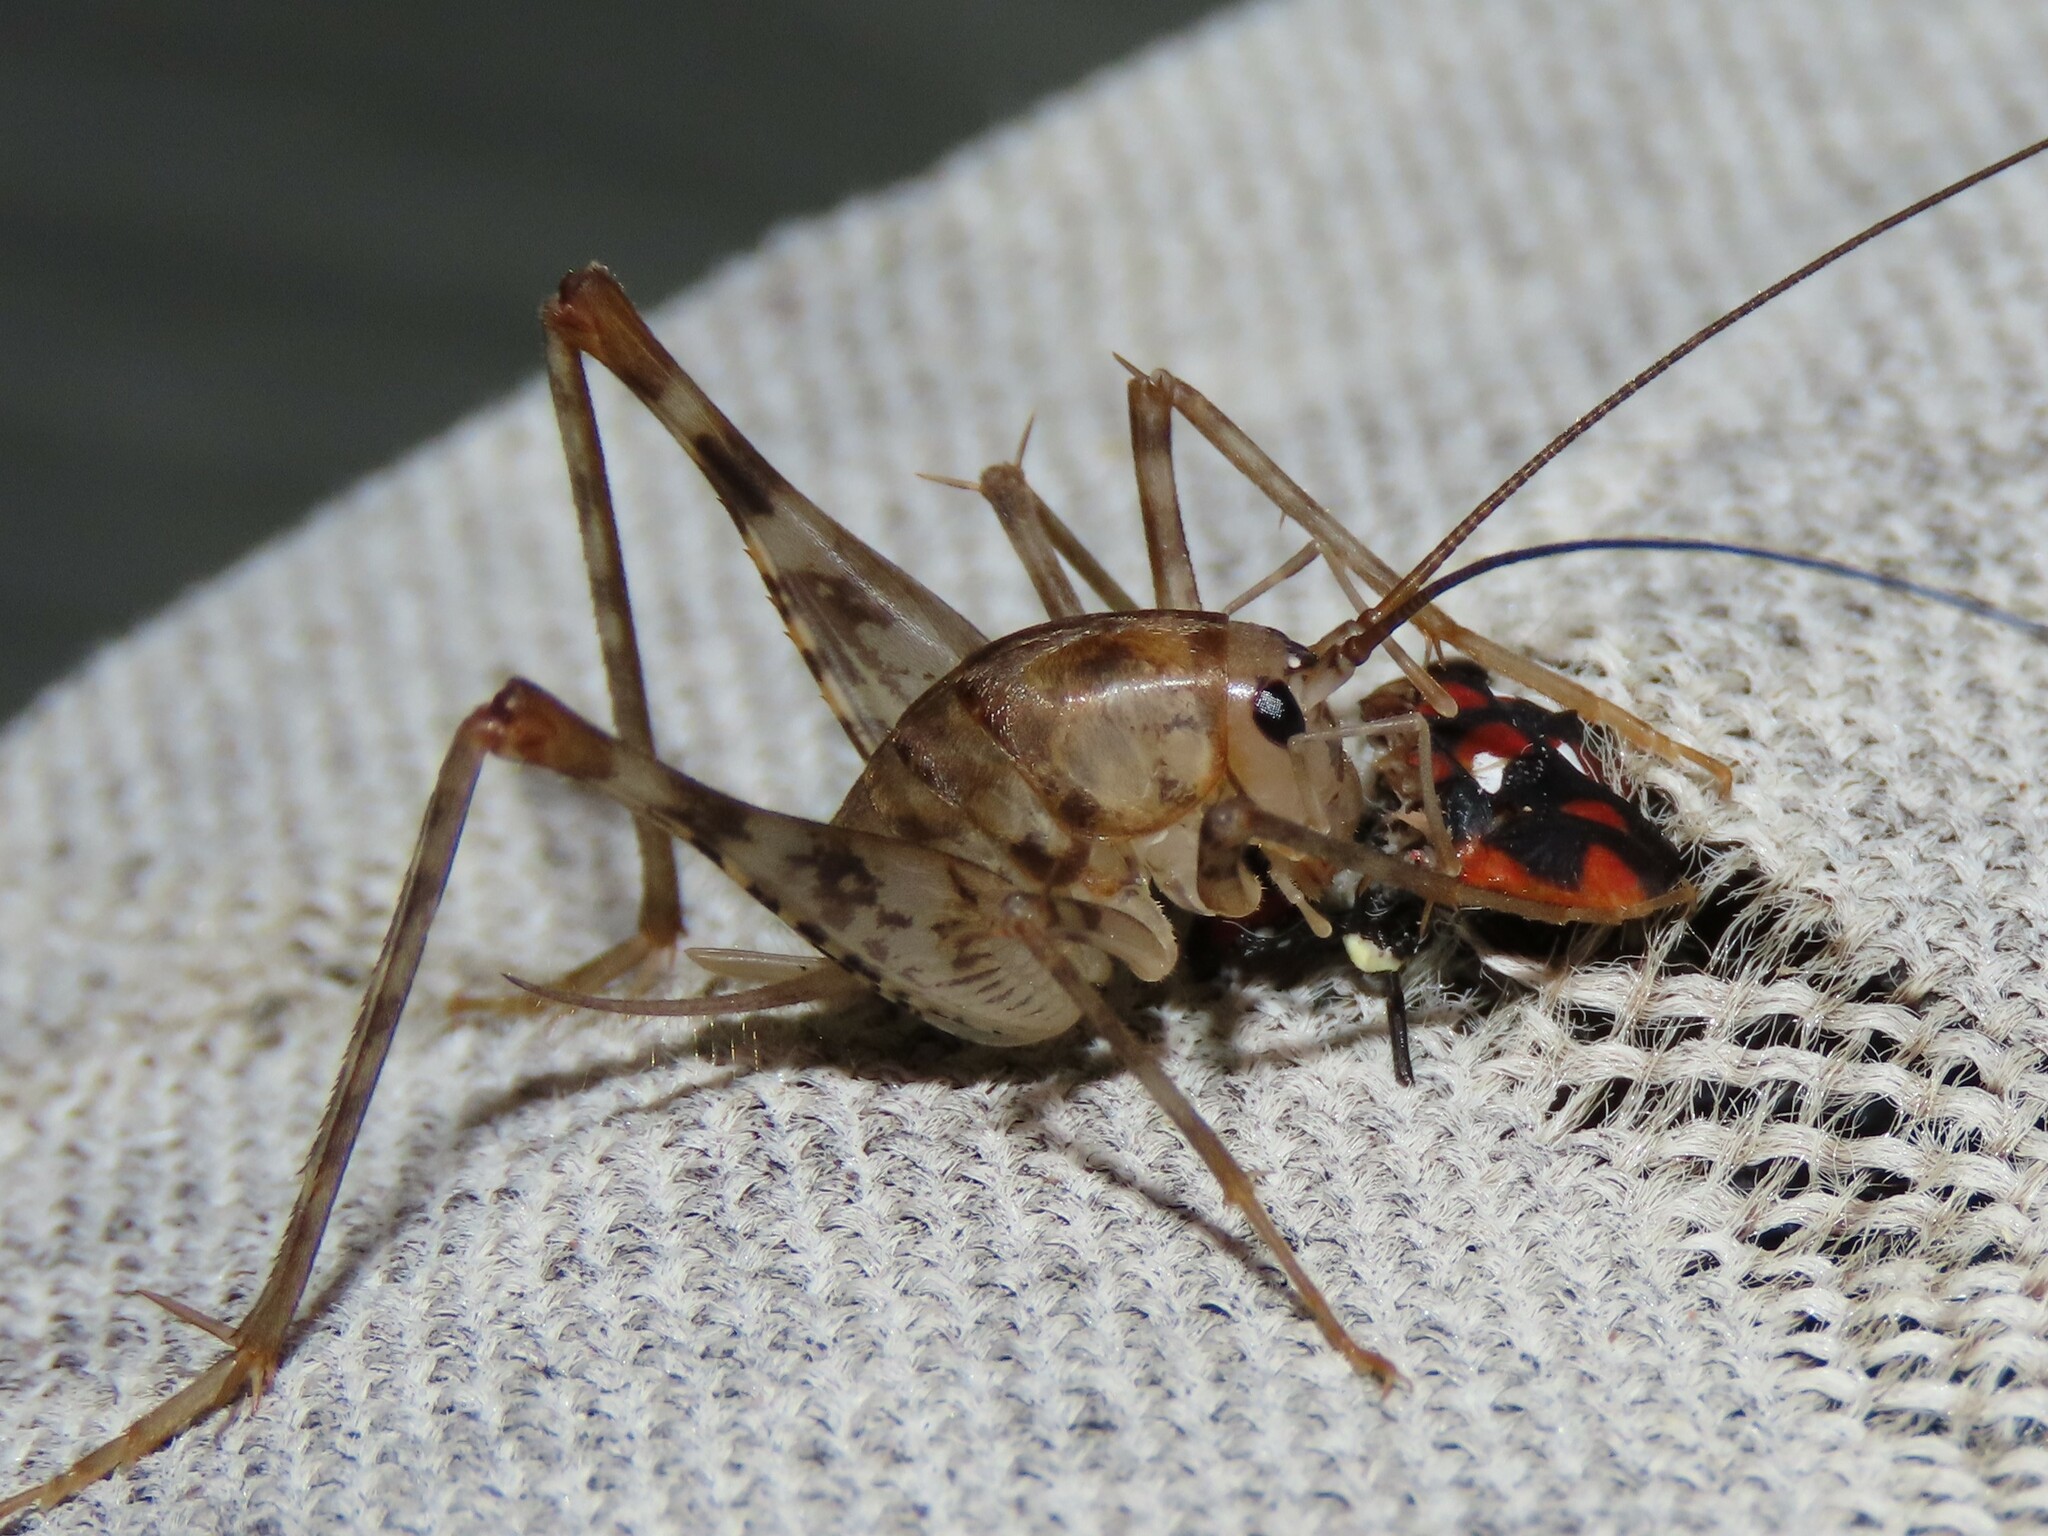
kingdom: Animalia
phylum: Arthropoda
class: Insecta
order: Orthoptera
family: Rhaphidophoridae
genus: Tachycines
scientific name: Tachycines asynamorus
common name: Greenhouse camel cricket
